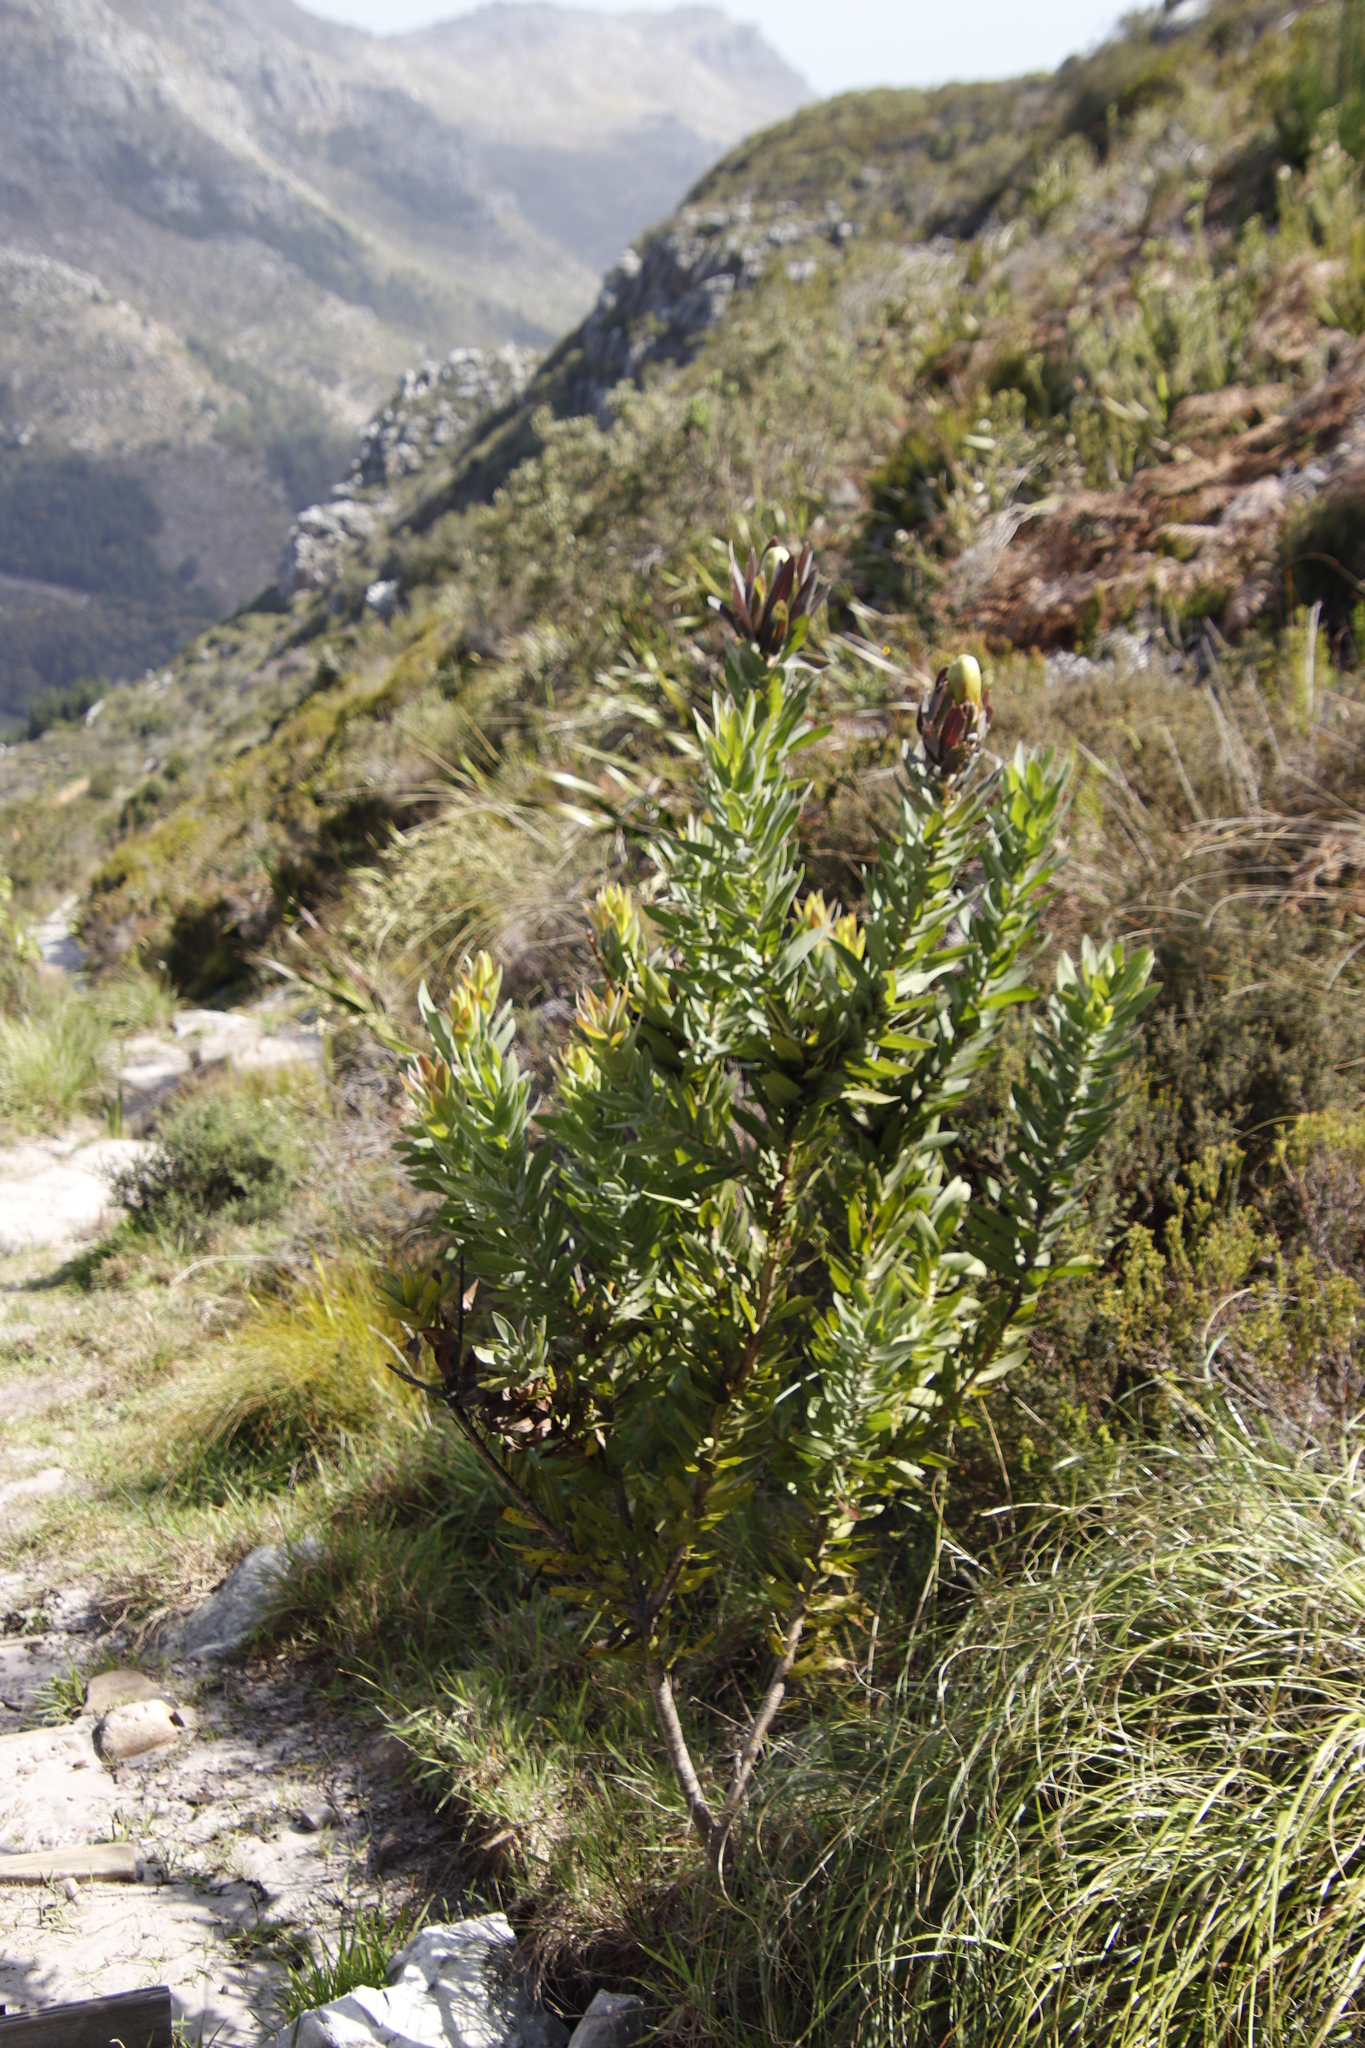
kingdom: Plantae
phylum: Tracheophyta
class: Magnoliopsida
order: Proteales
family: Proteaceae
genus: Protea
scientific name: Protea coronata
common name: Green sugarbush
